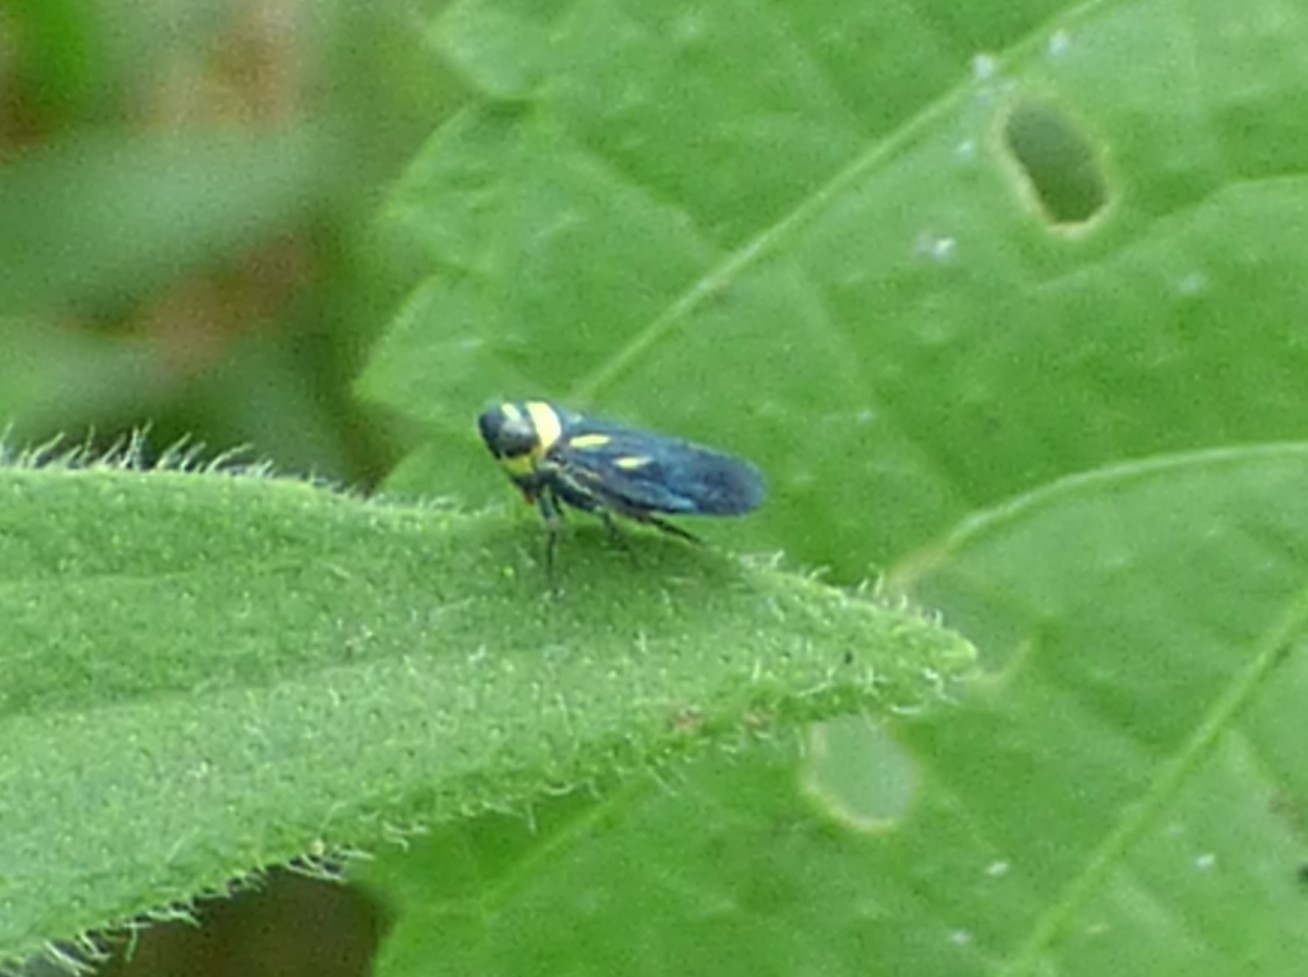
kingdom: Animalia
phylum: Arthropoda
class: Insecta
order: Hemiptera
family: Cicadellidae
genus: Stirellus
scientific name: Stirellus bicolor
